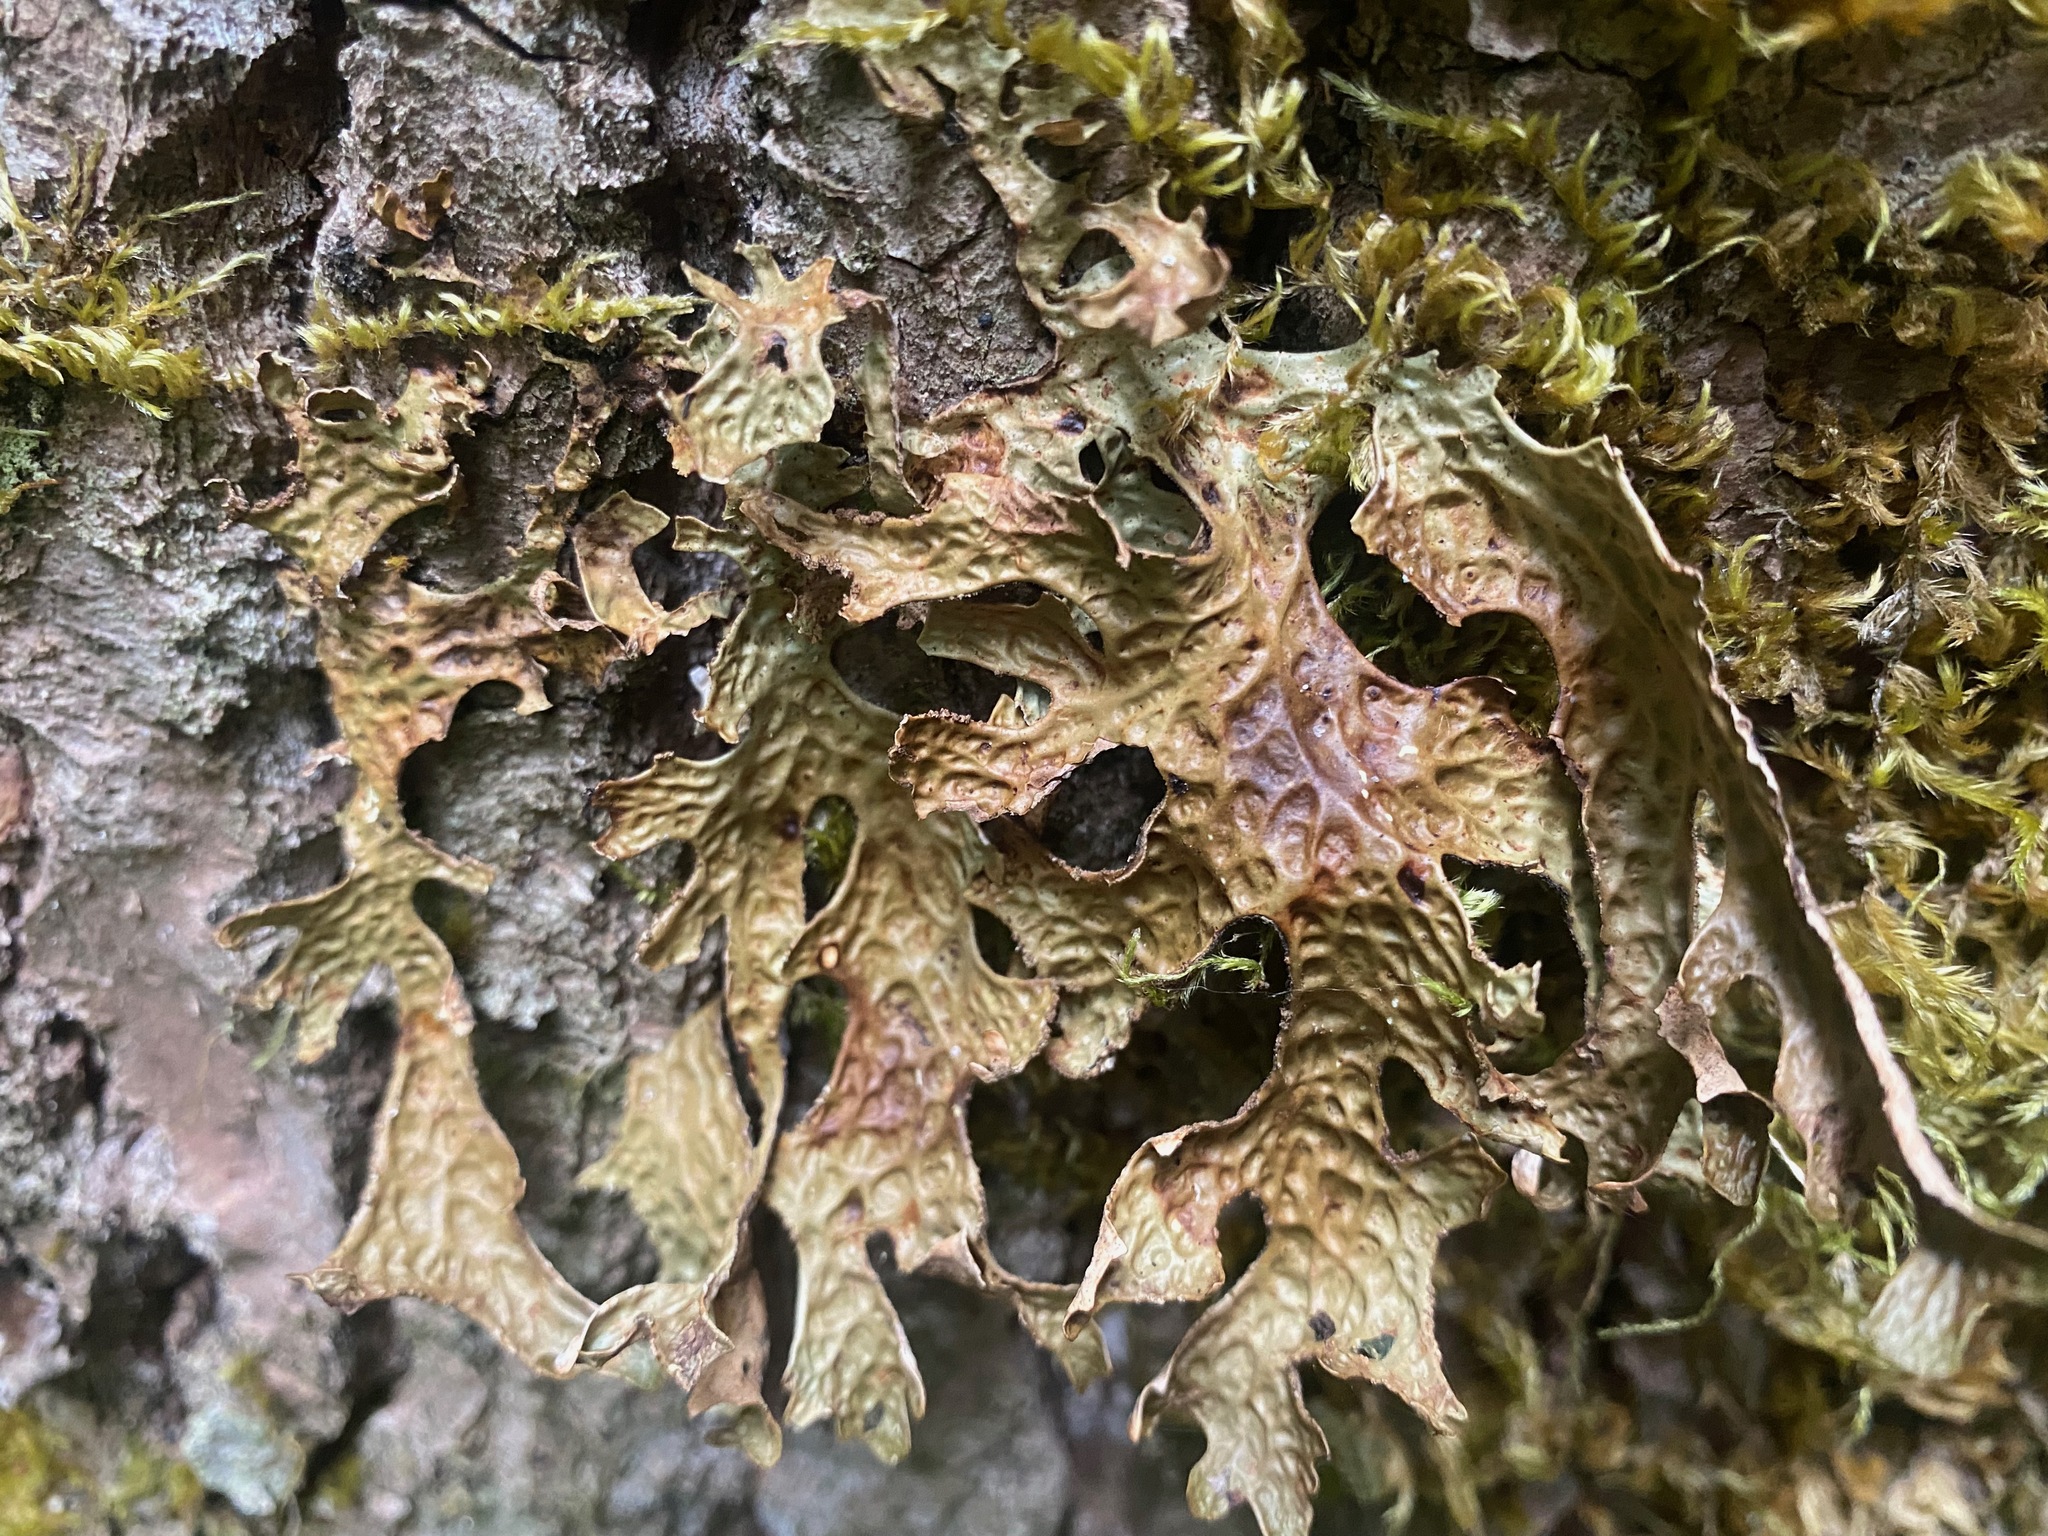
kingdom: Fungi
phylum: Ascomycota
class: Lecanoromycetes
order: Peltigerales
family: Lobariaceae
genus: Lobaria
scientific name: Lobaria pulmonaria
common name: Lungwort
